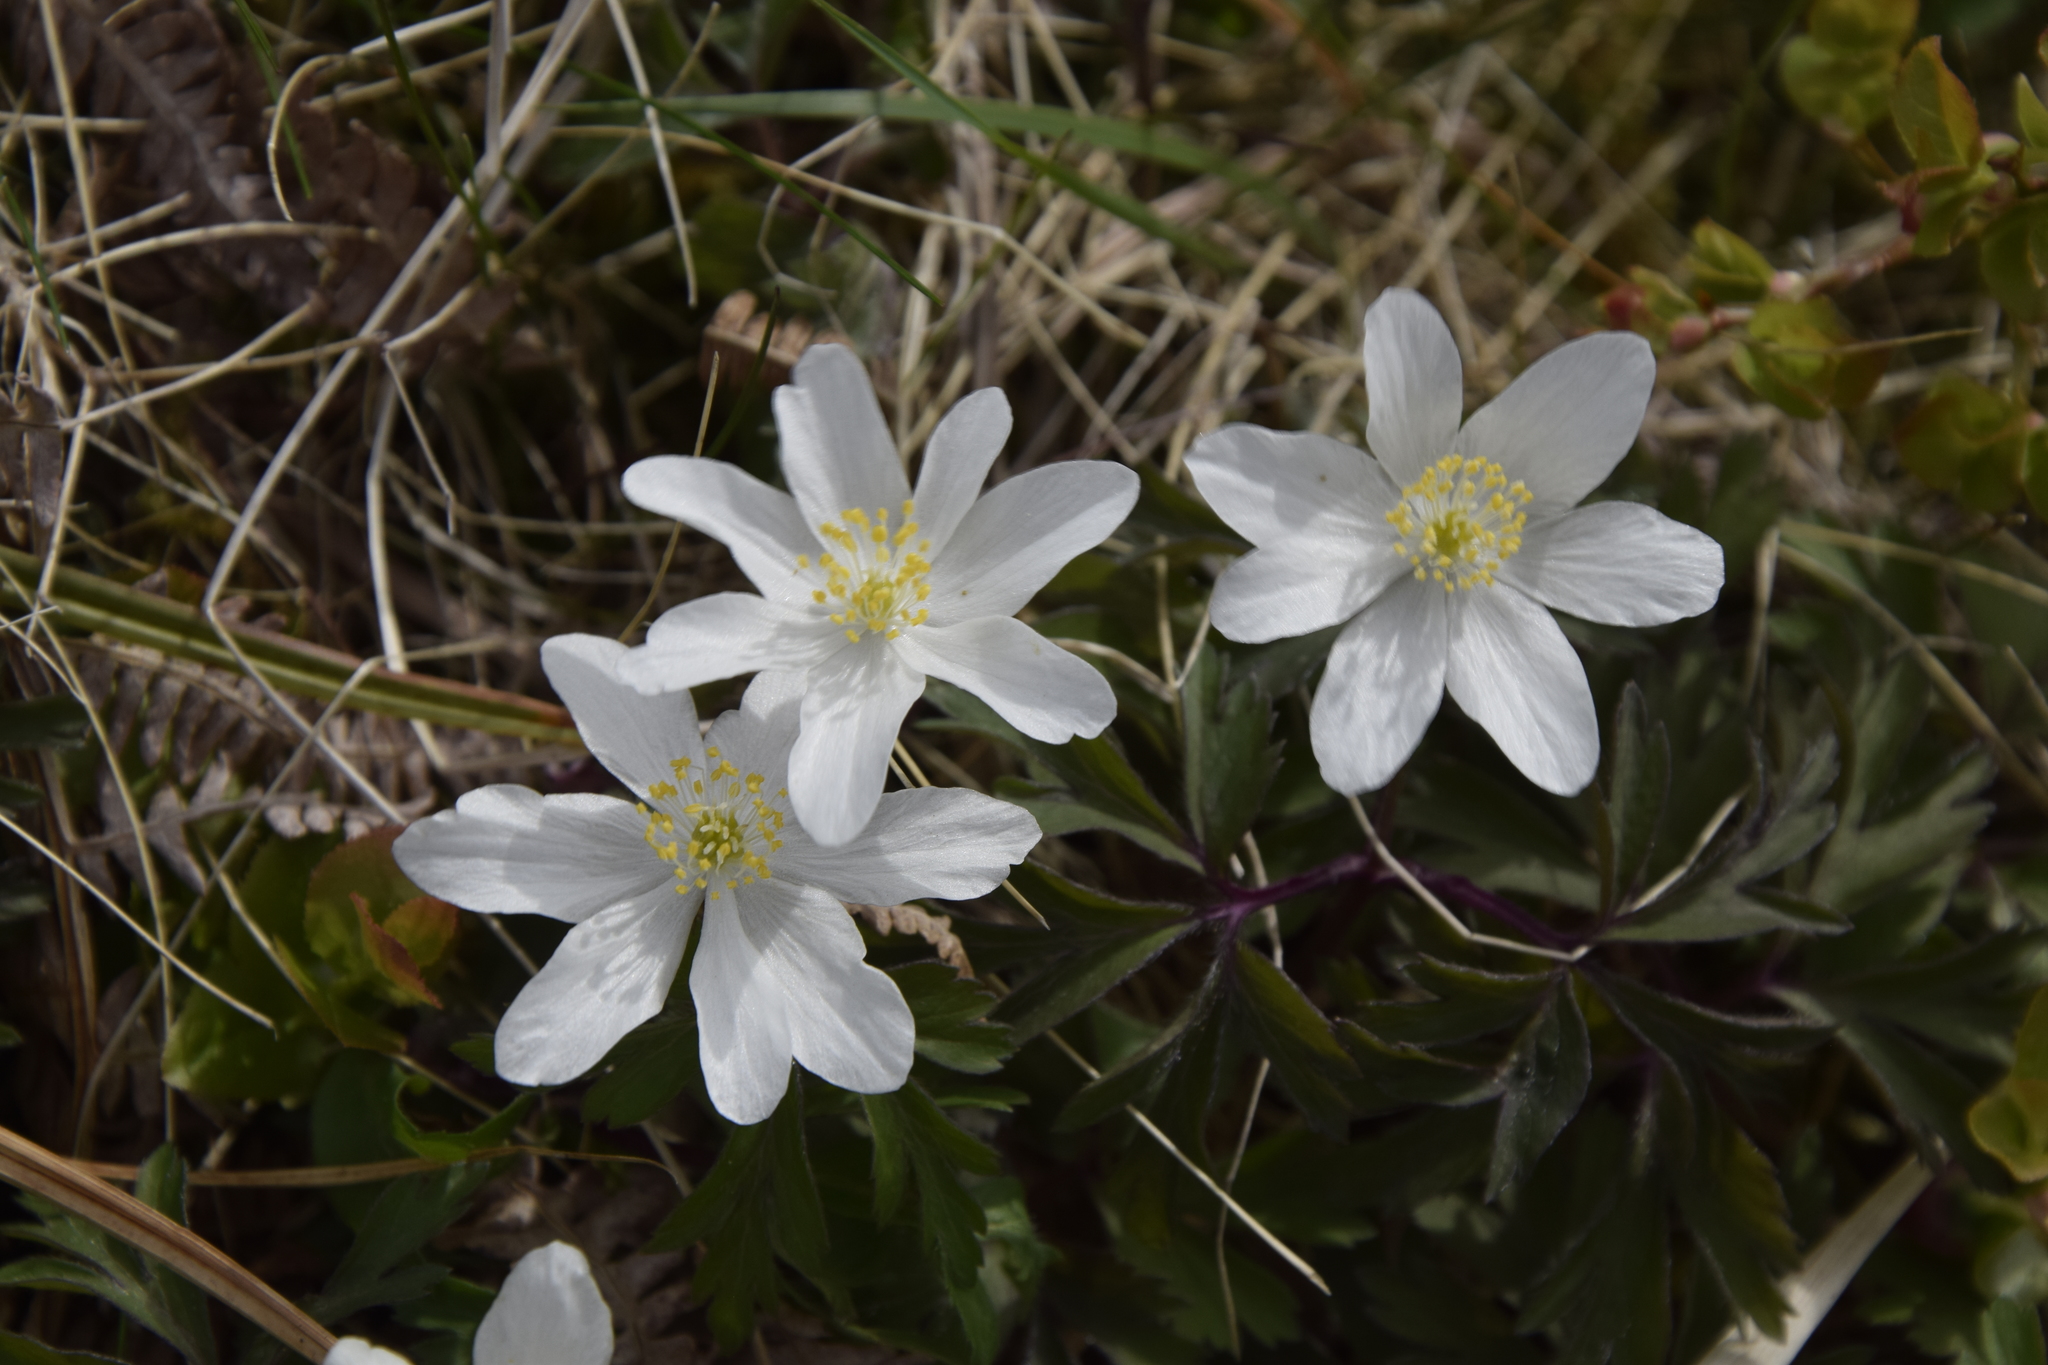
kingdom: Plantae
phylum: Tracheophyta
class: Magnoliopsida
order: Ranunculales
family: Ranunculaceae
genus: Anemone
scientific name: Anemone nemorosa
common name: Wood anemone
